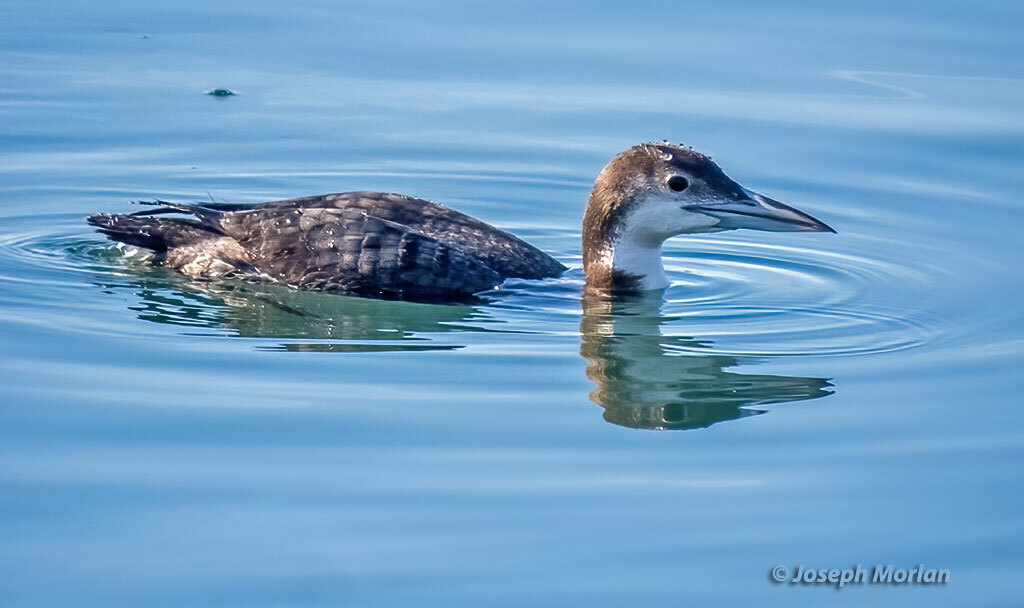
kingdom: Animalia
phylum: Chordata
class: Aves
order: Gaviiformes
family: Gaviidae
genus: Gavia
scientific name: Gavia immer
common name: Common loon
